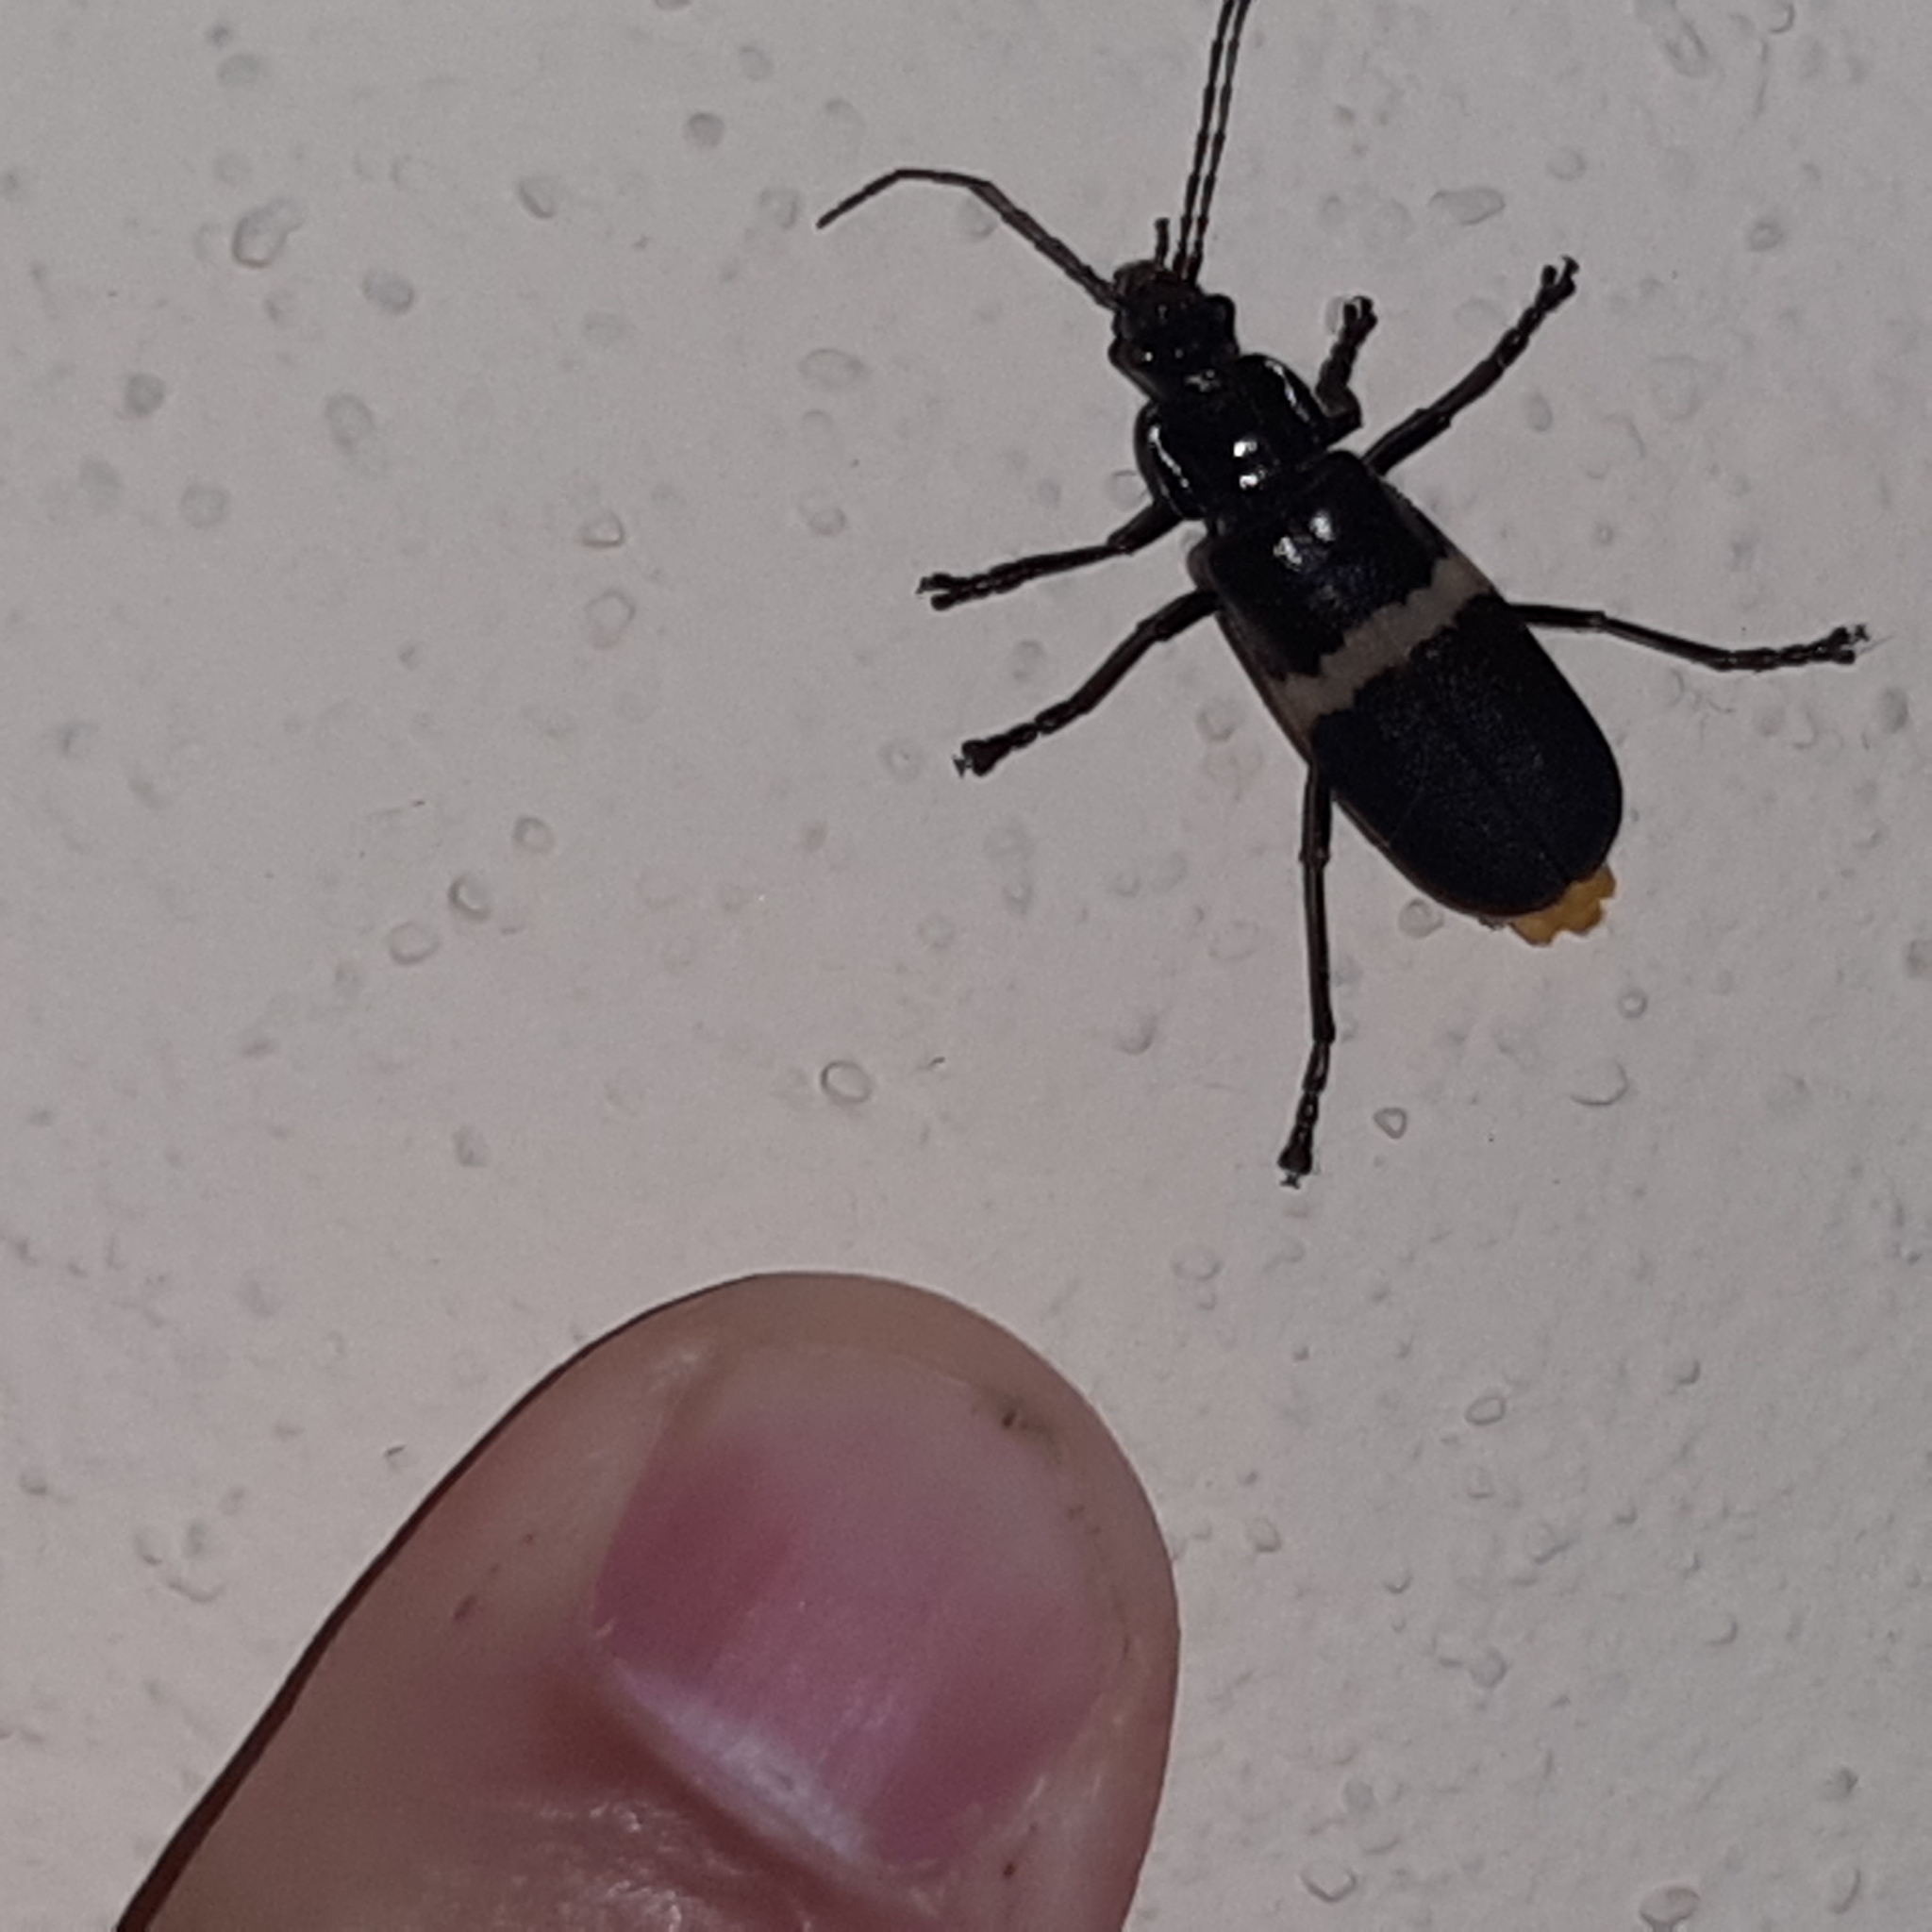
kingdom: Animalia
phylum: Arthropoda
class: Insecta
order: Coleoptera
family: Cantharidae
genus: Chauliognathus
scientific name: Chauliognathus
